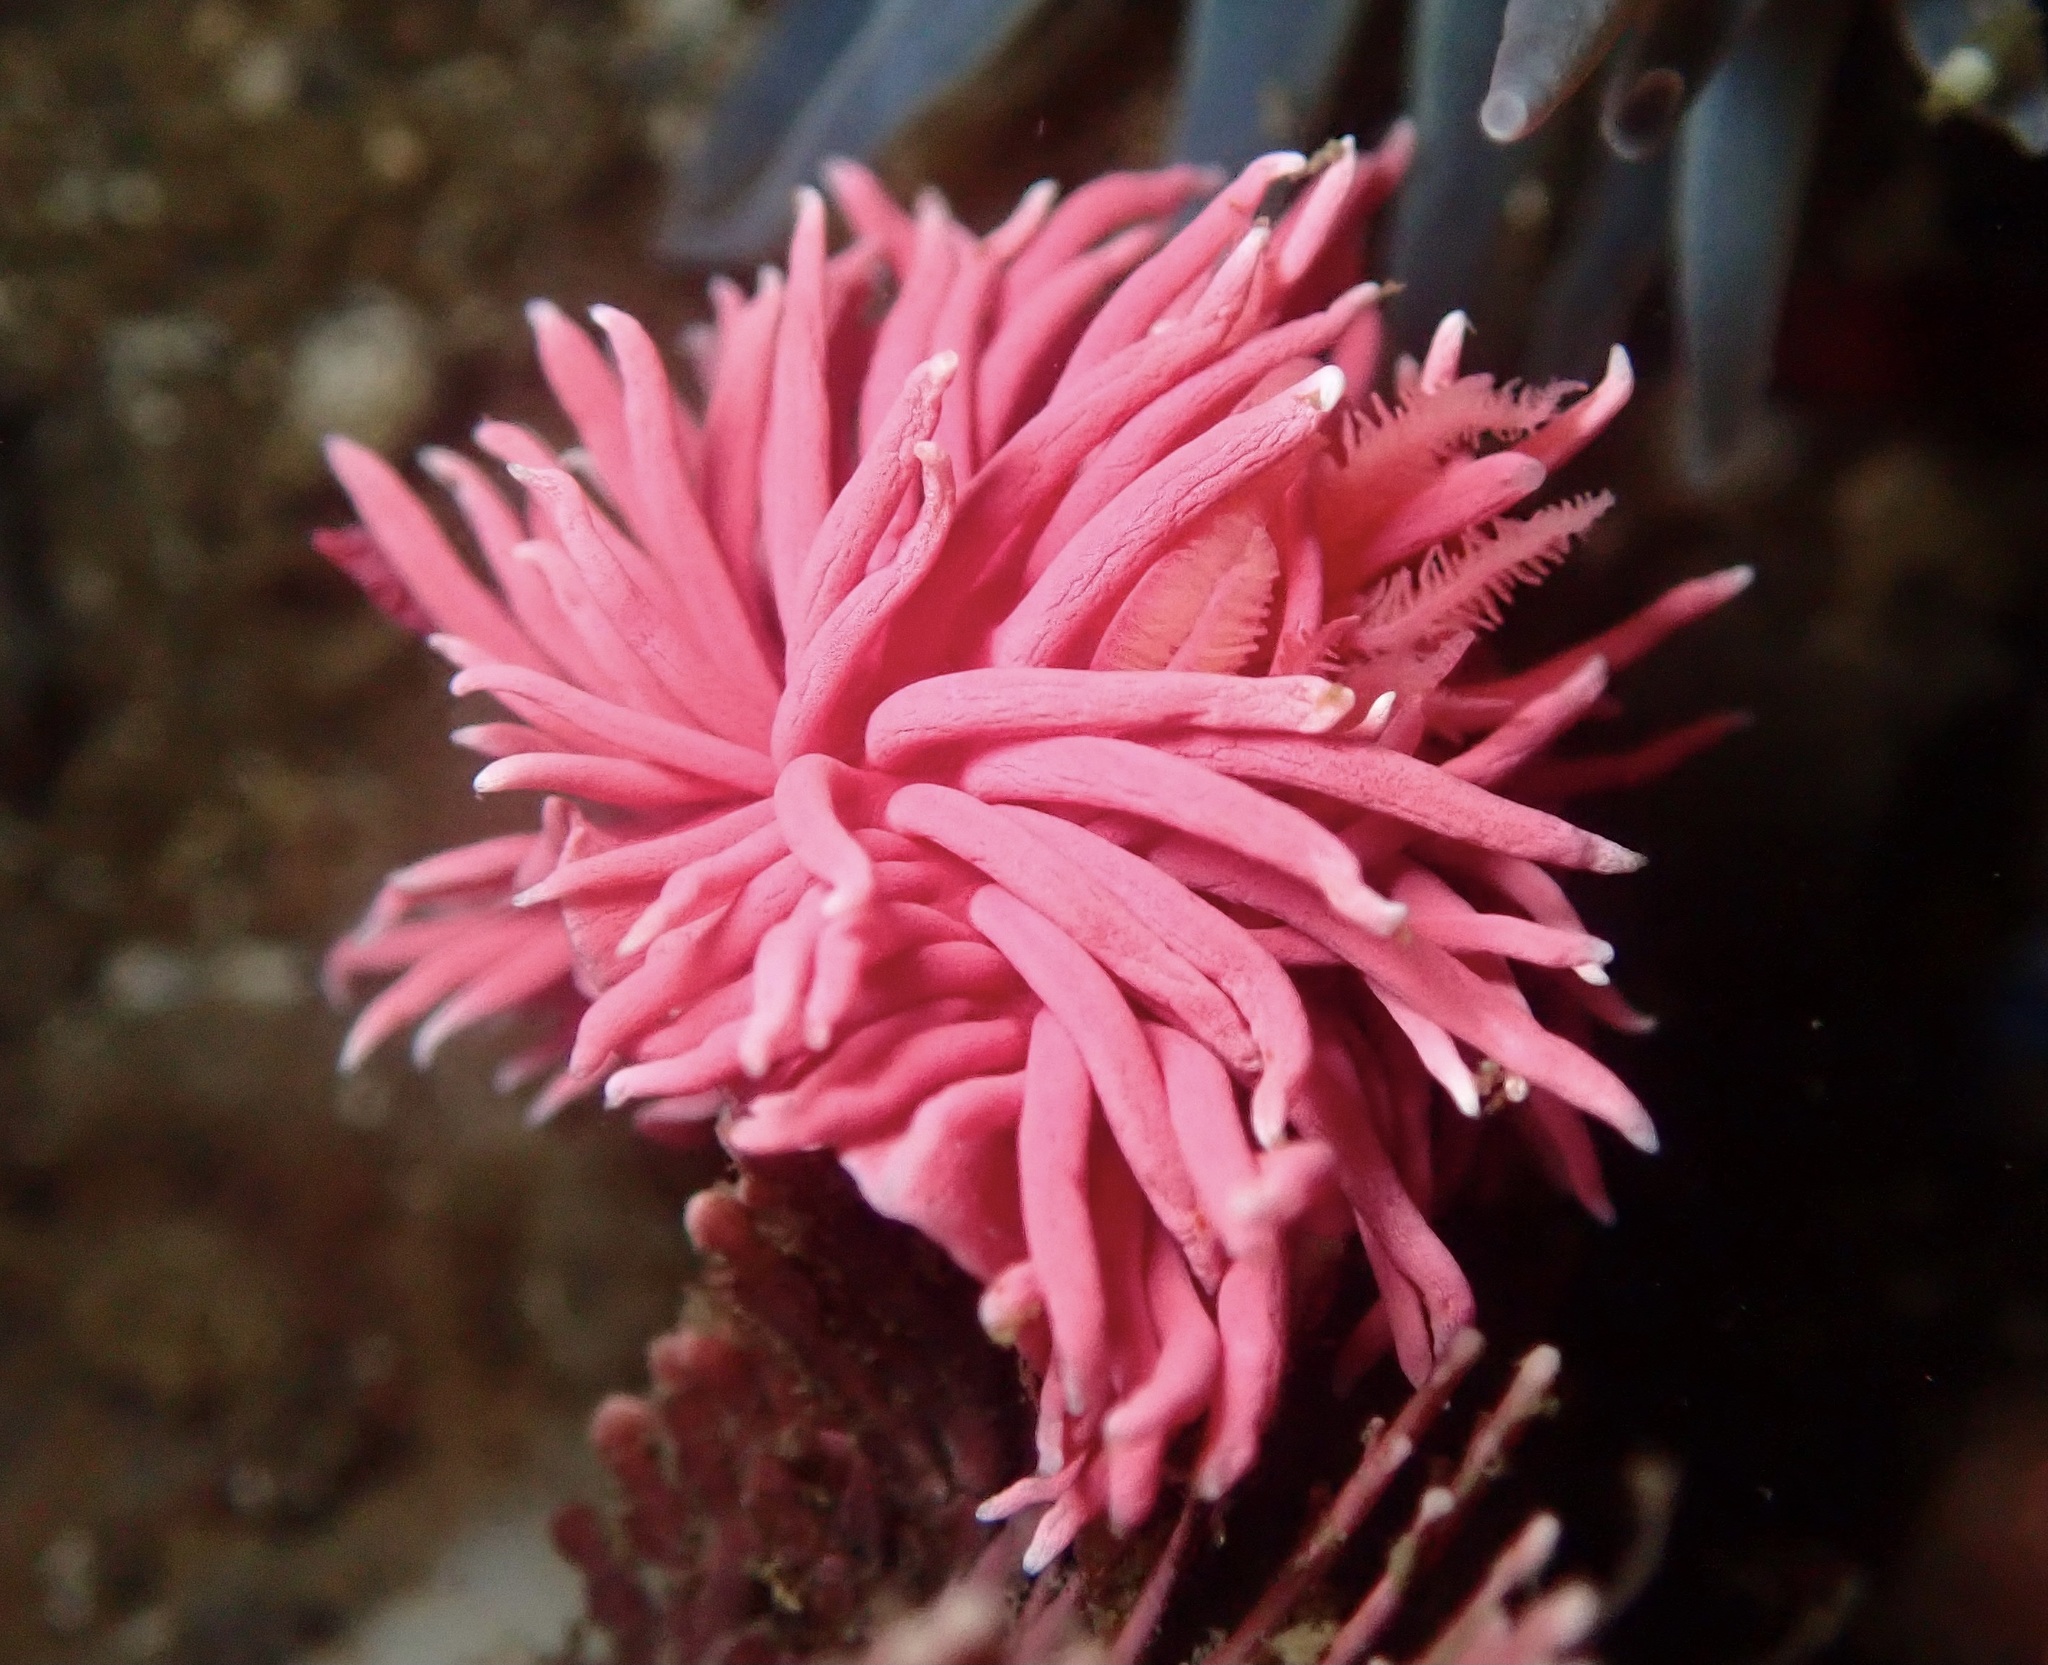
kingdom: Animalia
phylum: Mollusca
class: Gastropoda
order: Nudibranchia
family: Goniodorididae
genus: Okenia
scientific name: Okenia
